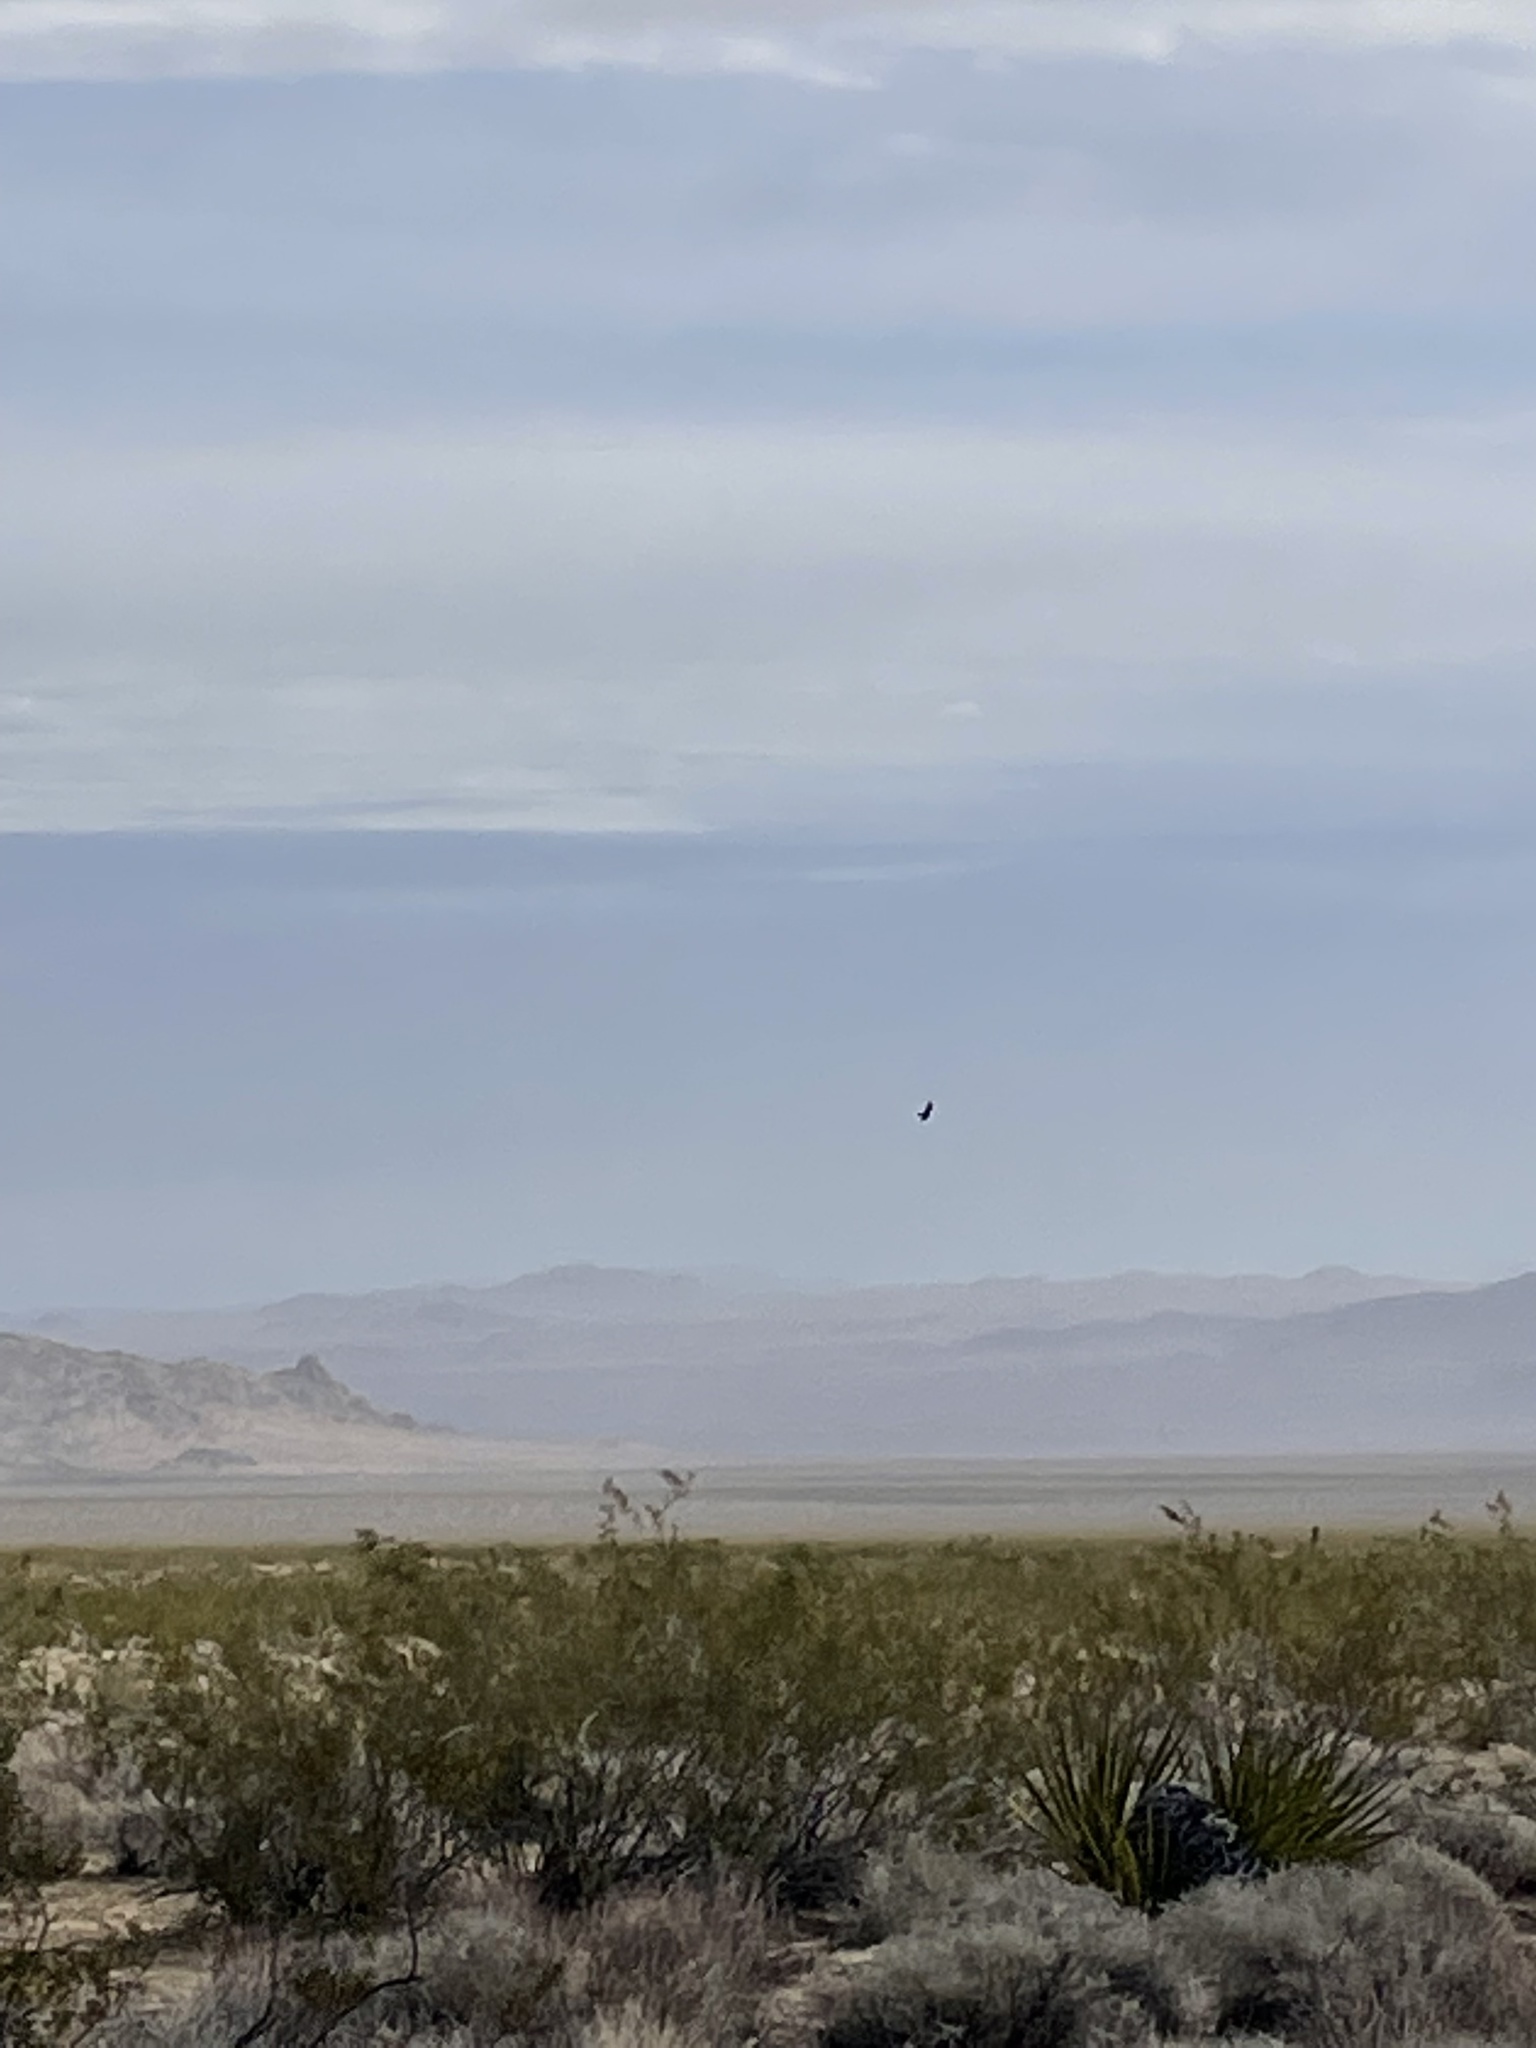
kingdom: Plantae
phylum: Tracheophyta
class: Liliopsida
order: Asparagales
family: Asparagaceae
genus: Yucca
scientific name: Yucca schidigera
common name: Mojave yucca
